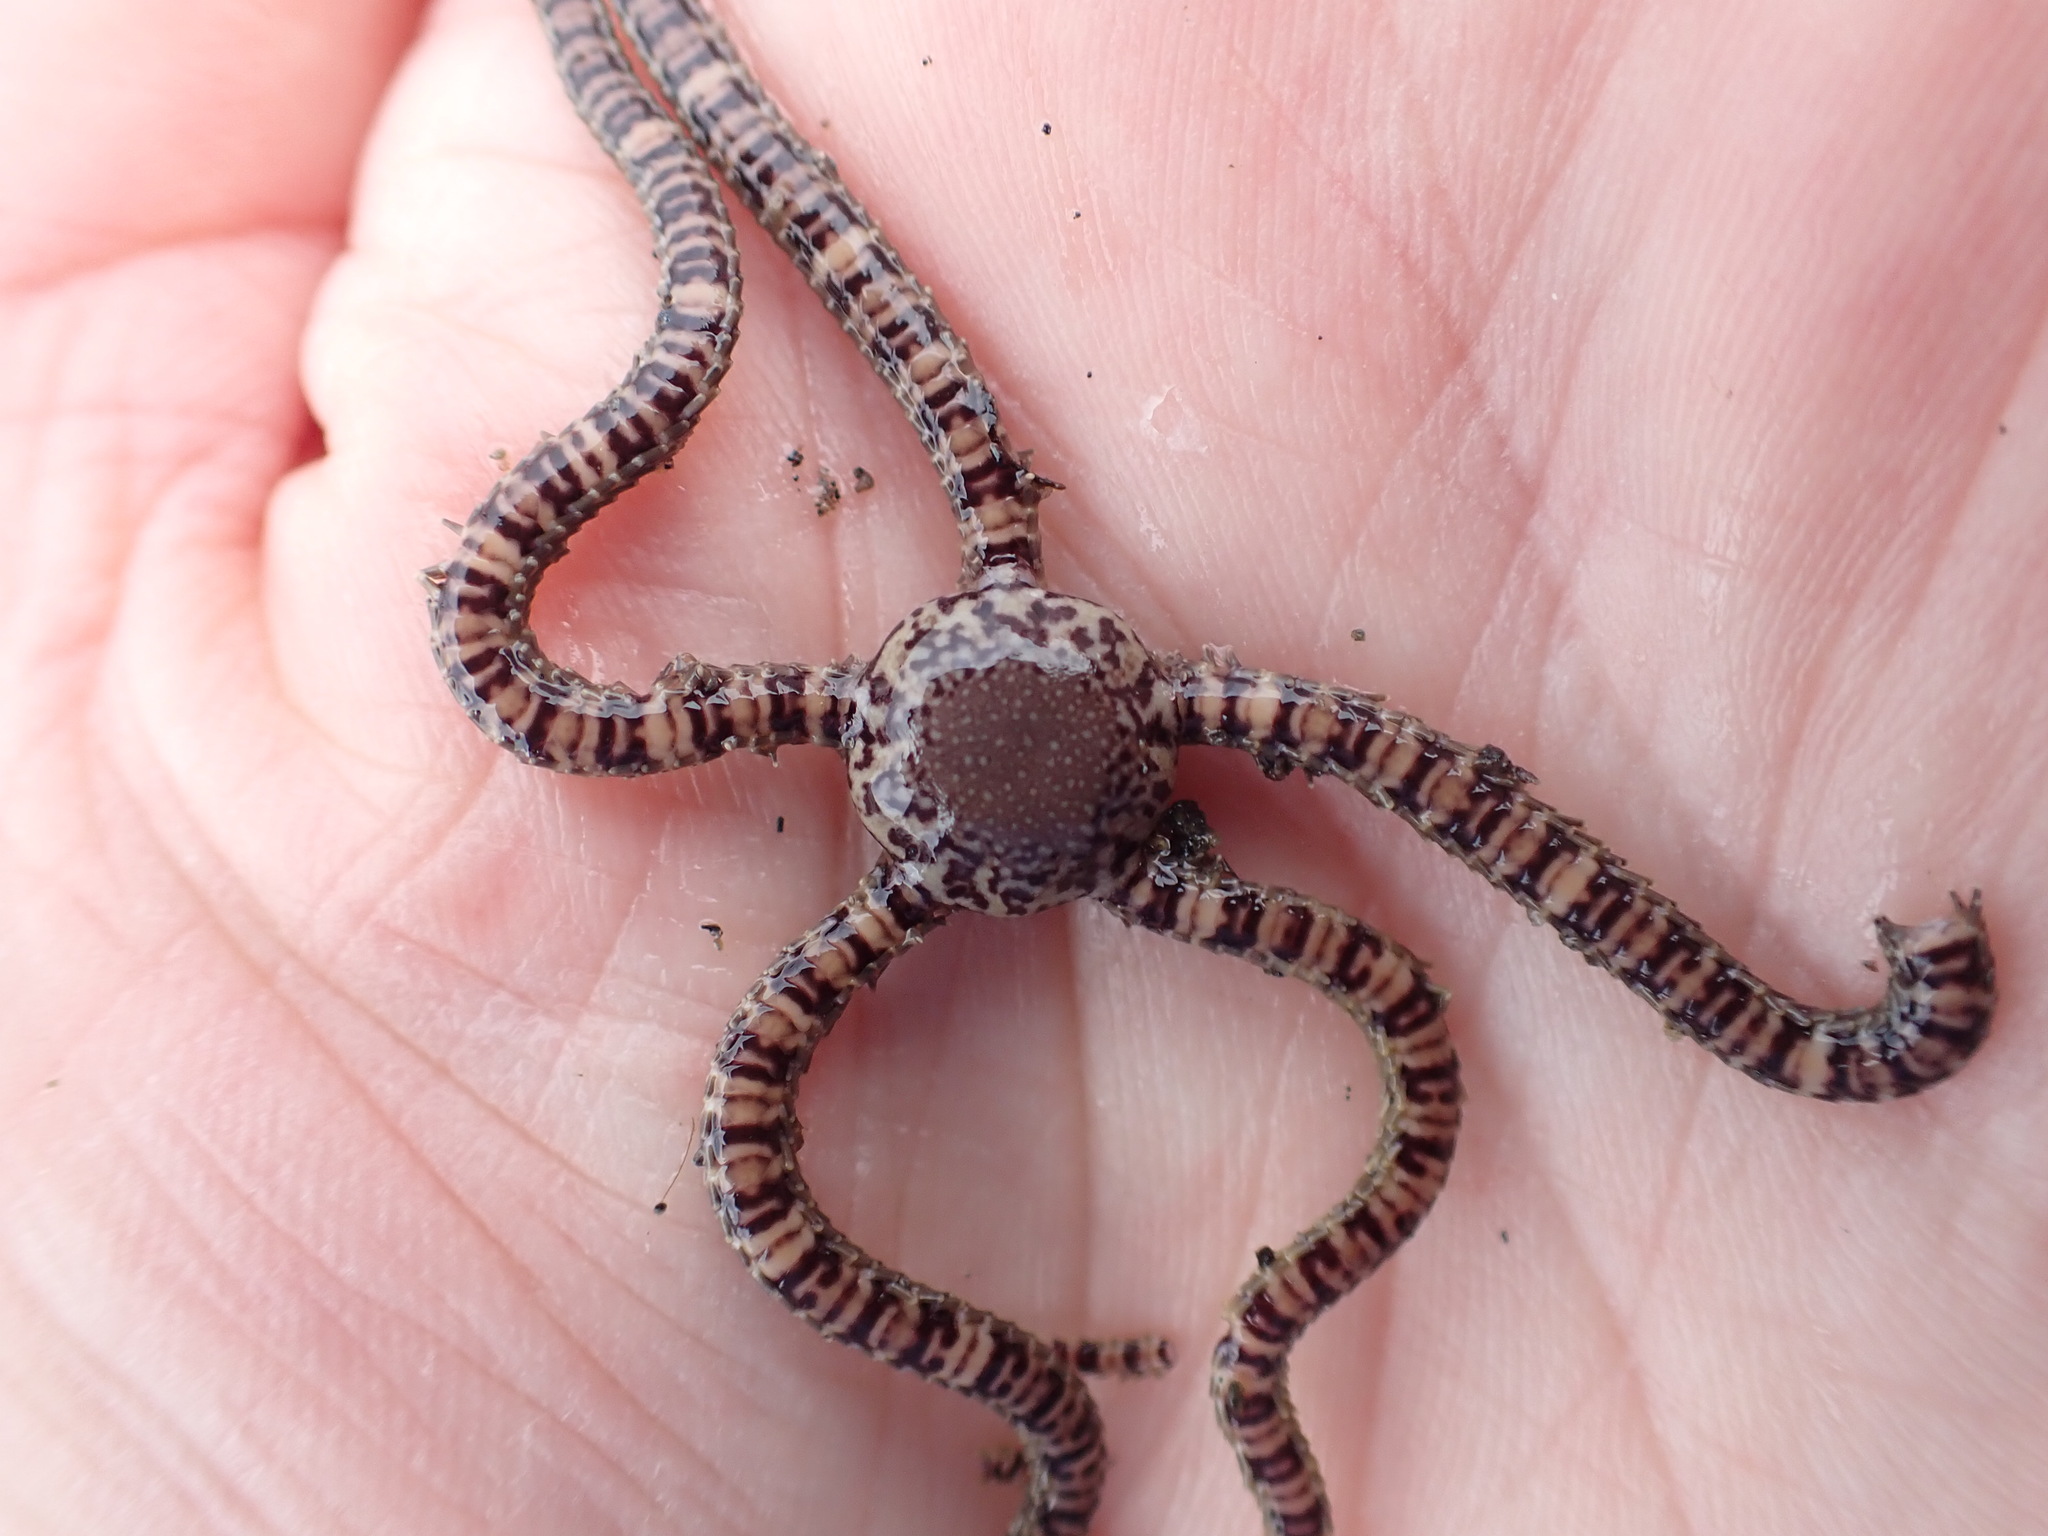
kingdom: Animalia
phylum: Echinodermata
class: Ophiuroidea
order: Amphilepidida
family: Ophionereididae
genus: Ophionereis
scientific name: Ophionereis fasciata
